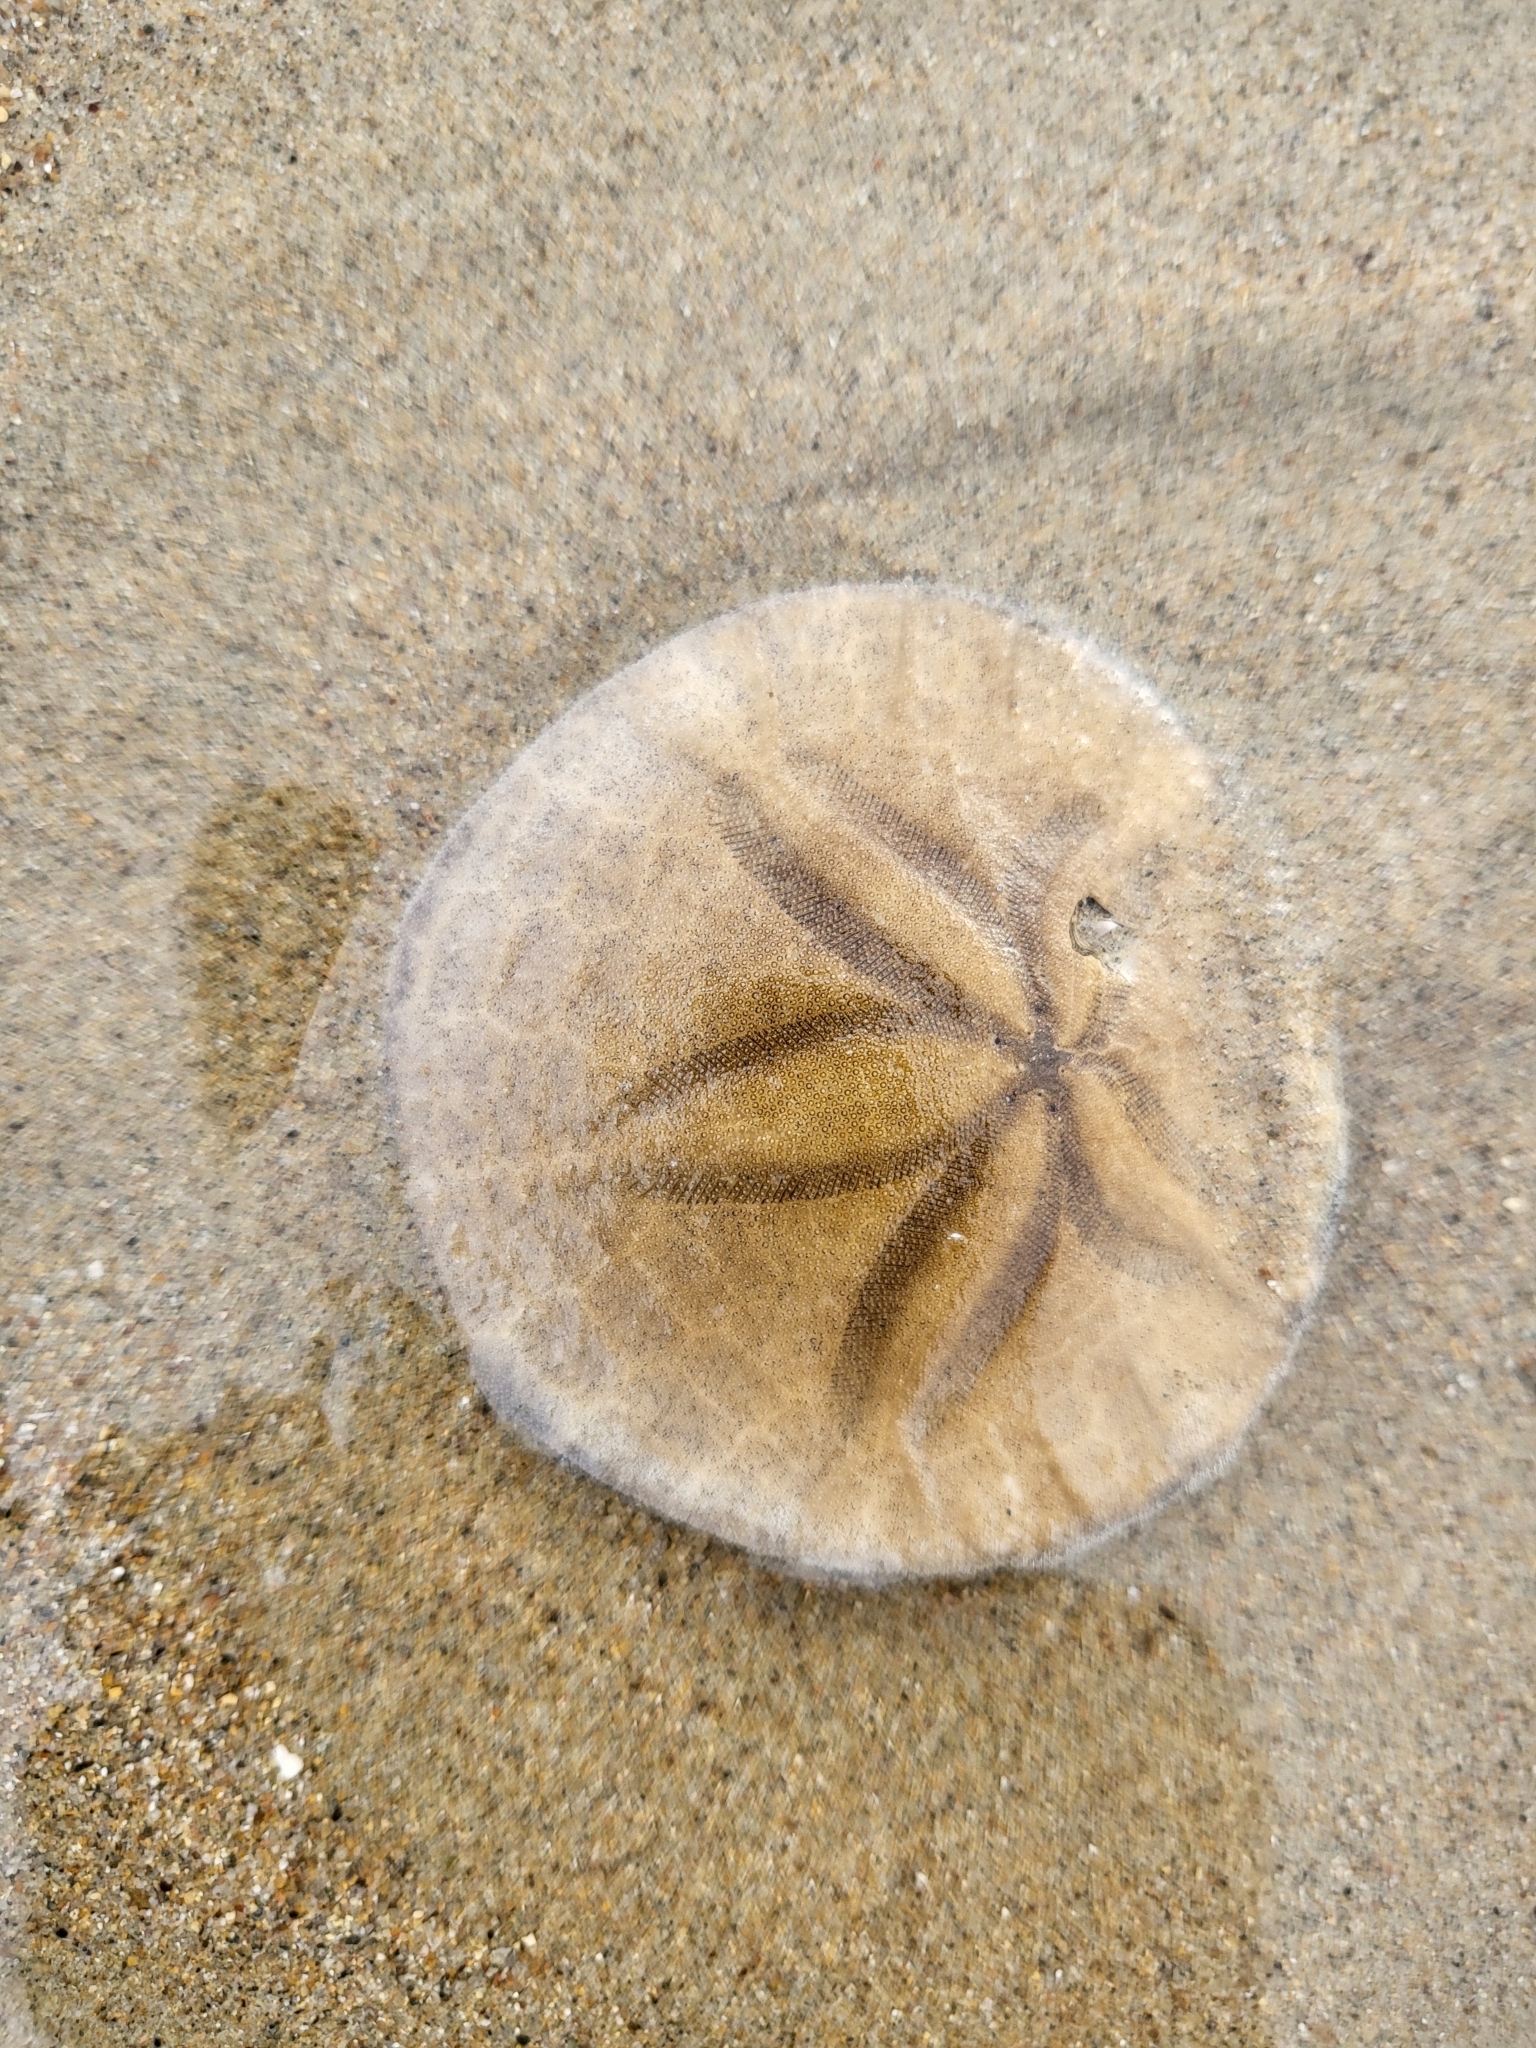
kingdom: Animalia
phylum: Echinodermata
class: Echinoidea
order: Echinolampadacea
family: Dendrasteridae
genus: Dendraster
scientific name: Dendraster excentricus
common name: Eccentric sand dollar sea urchin
